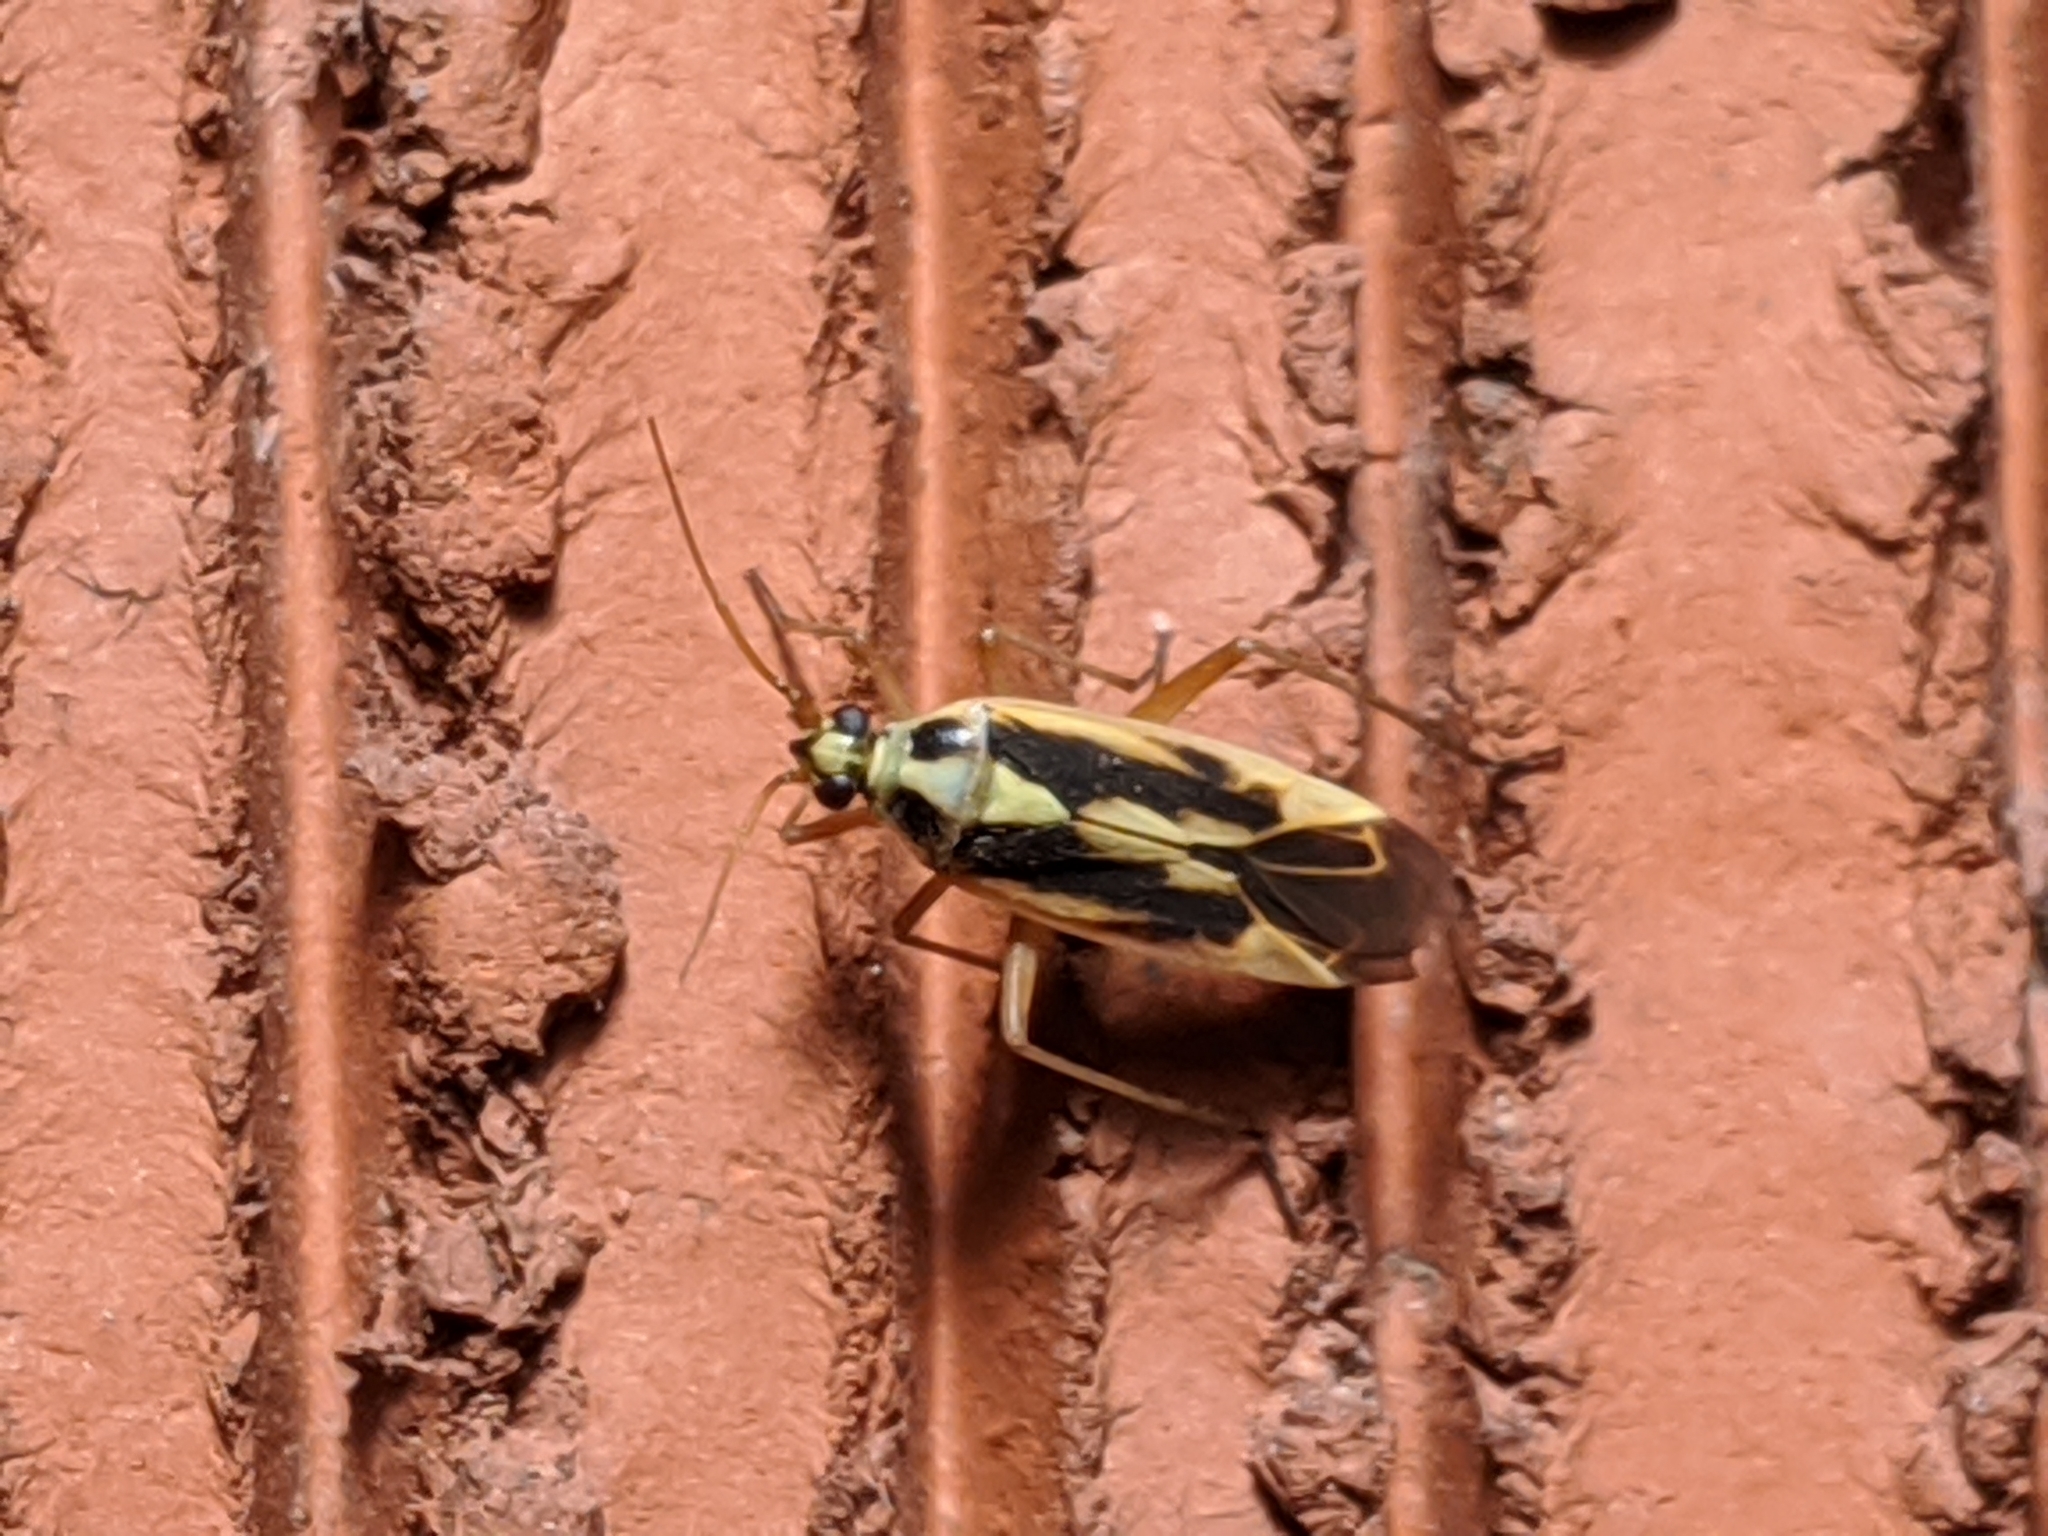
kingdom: Animalia
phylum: Arthropoda
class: Insecta
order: Hemiptera
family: Miridae
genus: Stenotus
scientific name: Stenotus binotatus
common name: Plant bug
